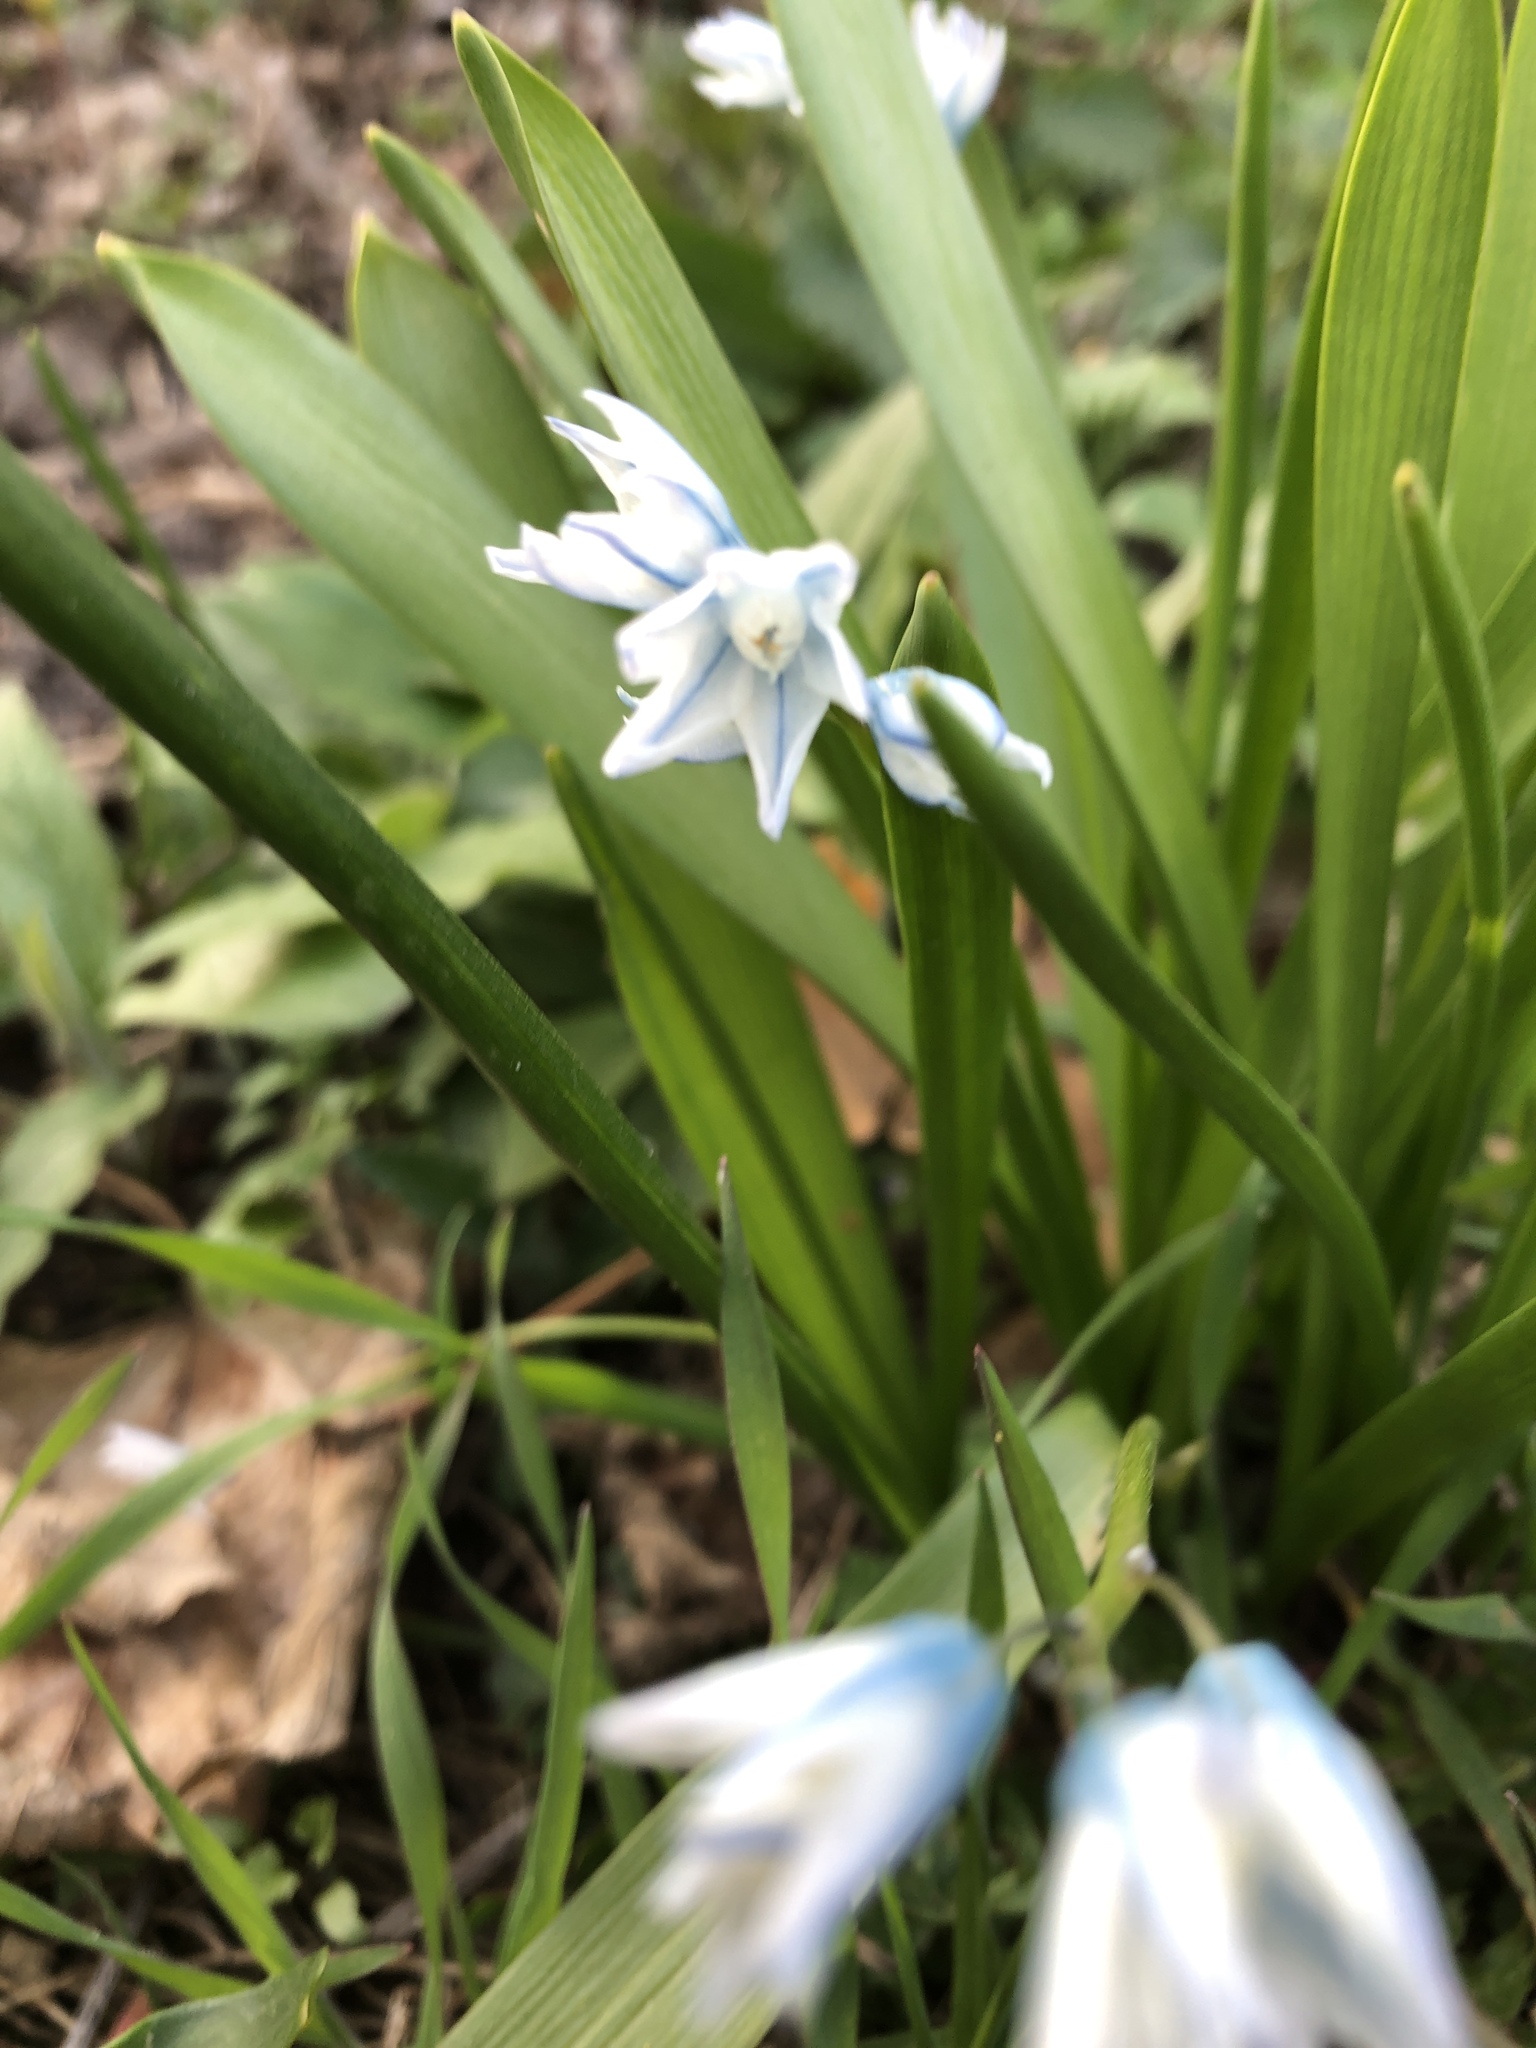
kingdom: Plantae
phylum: Tracheophyta
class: Liliopsida
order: Asparagales
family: Asparagaceae
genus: Puschkinia
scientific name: Puschkinia scilloides
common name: Striped squill
